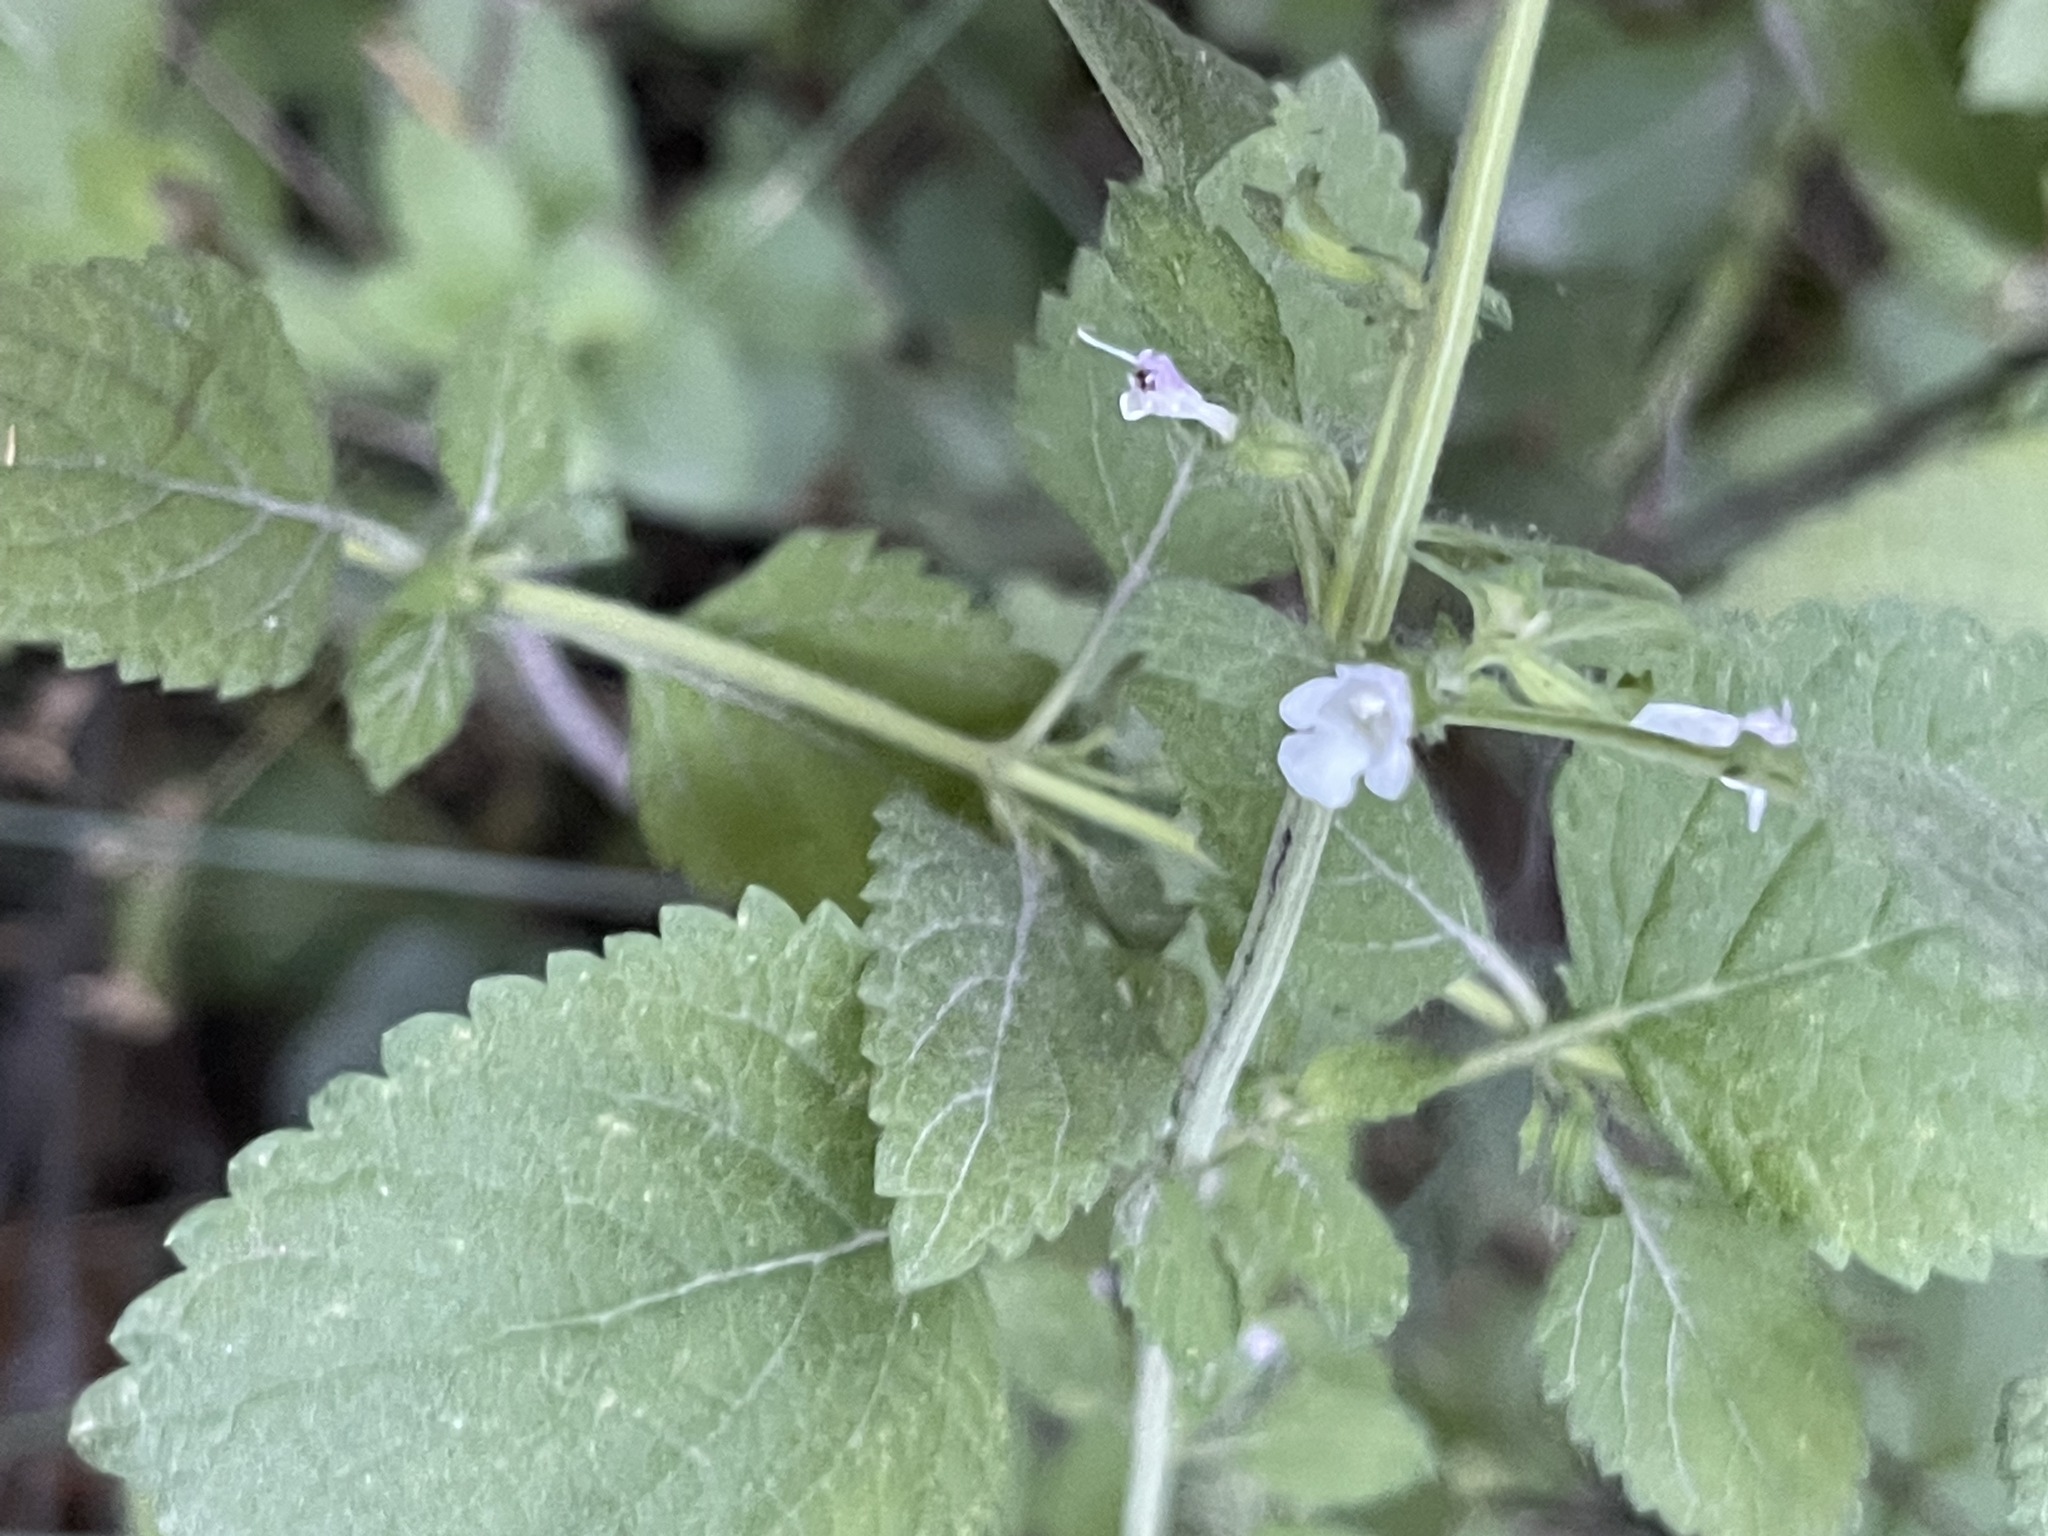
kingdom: Plantae
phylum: Tracheophyta
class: Magnoliopsida
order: Lamiales
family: Lamiaceae
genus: Melissa
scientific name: Melissa officinalis
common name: Balm
